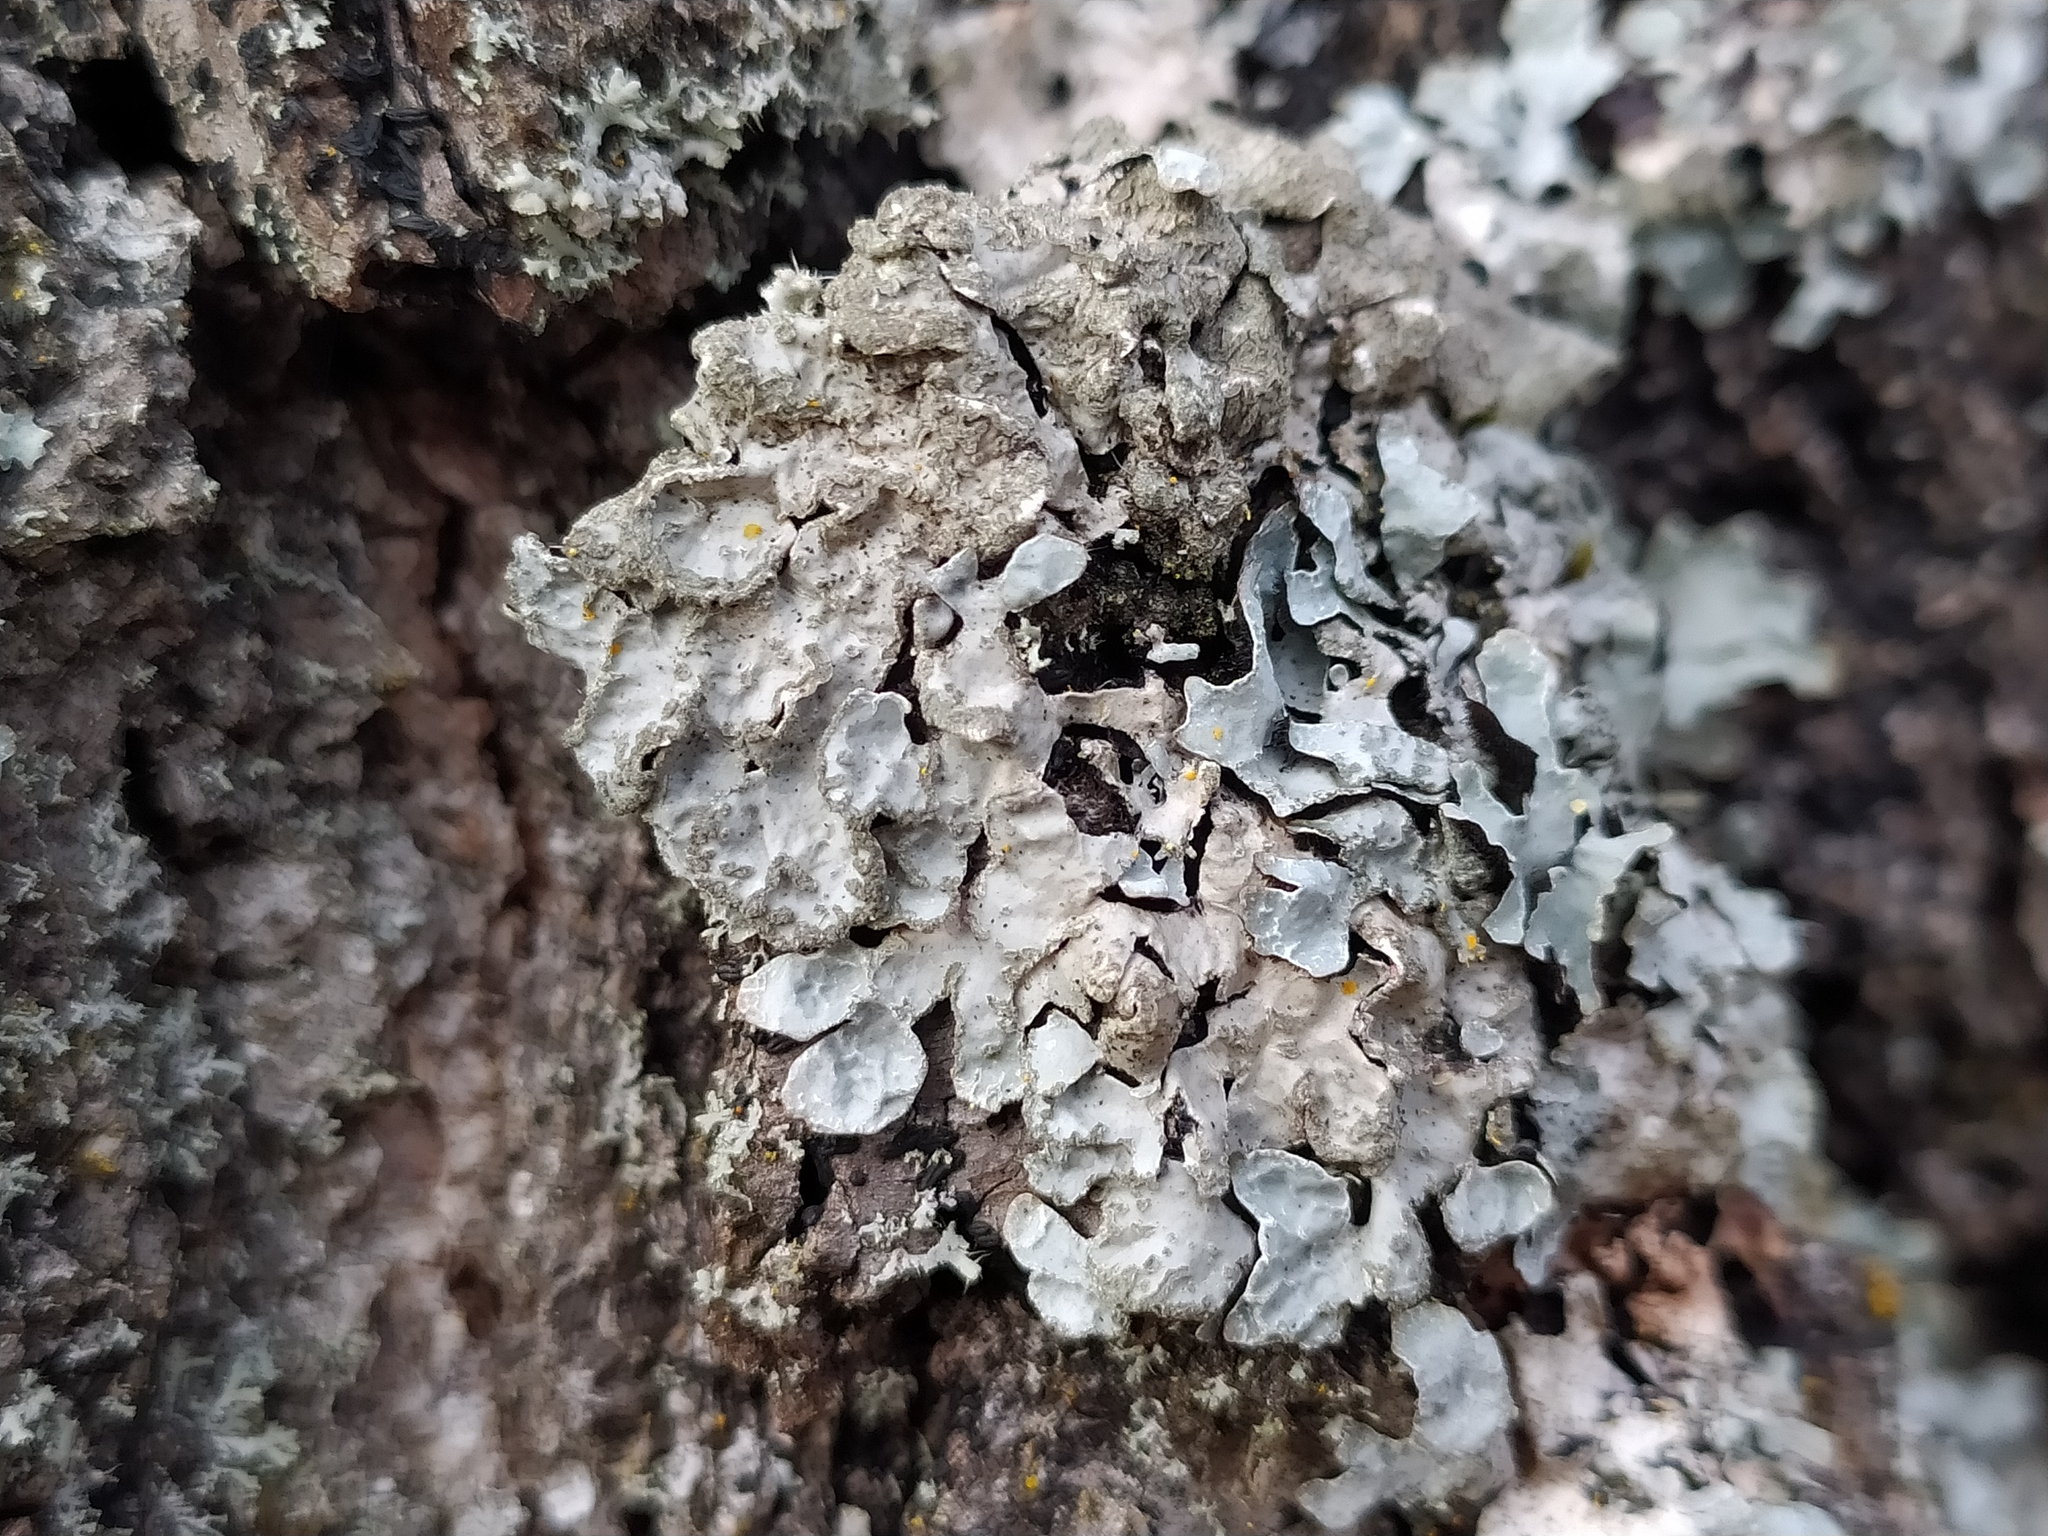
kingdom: Fungi
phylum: Ascomycota
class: Lecanoromycetes
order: Lecanorales
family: Parmeliaceae
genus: Parmelia
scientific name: Parmelia sulcata
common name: Netted shield lichen
